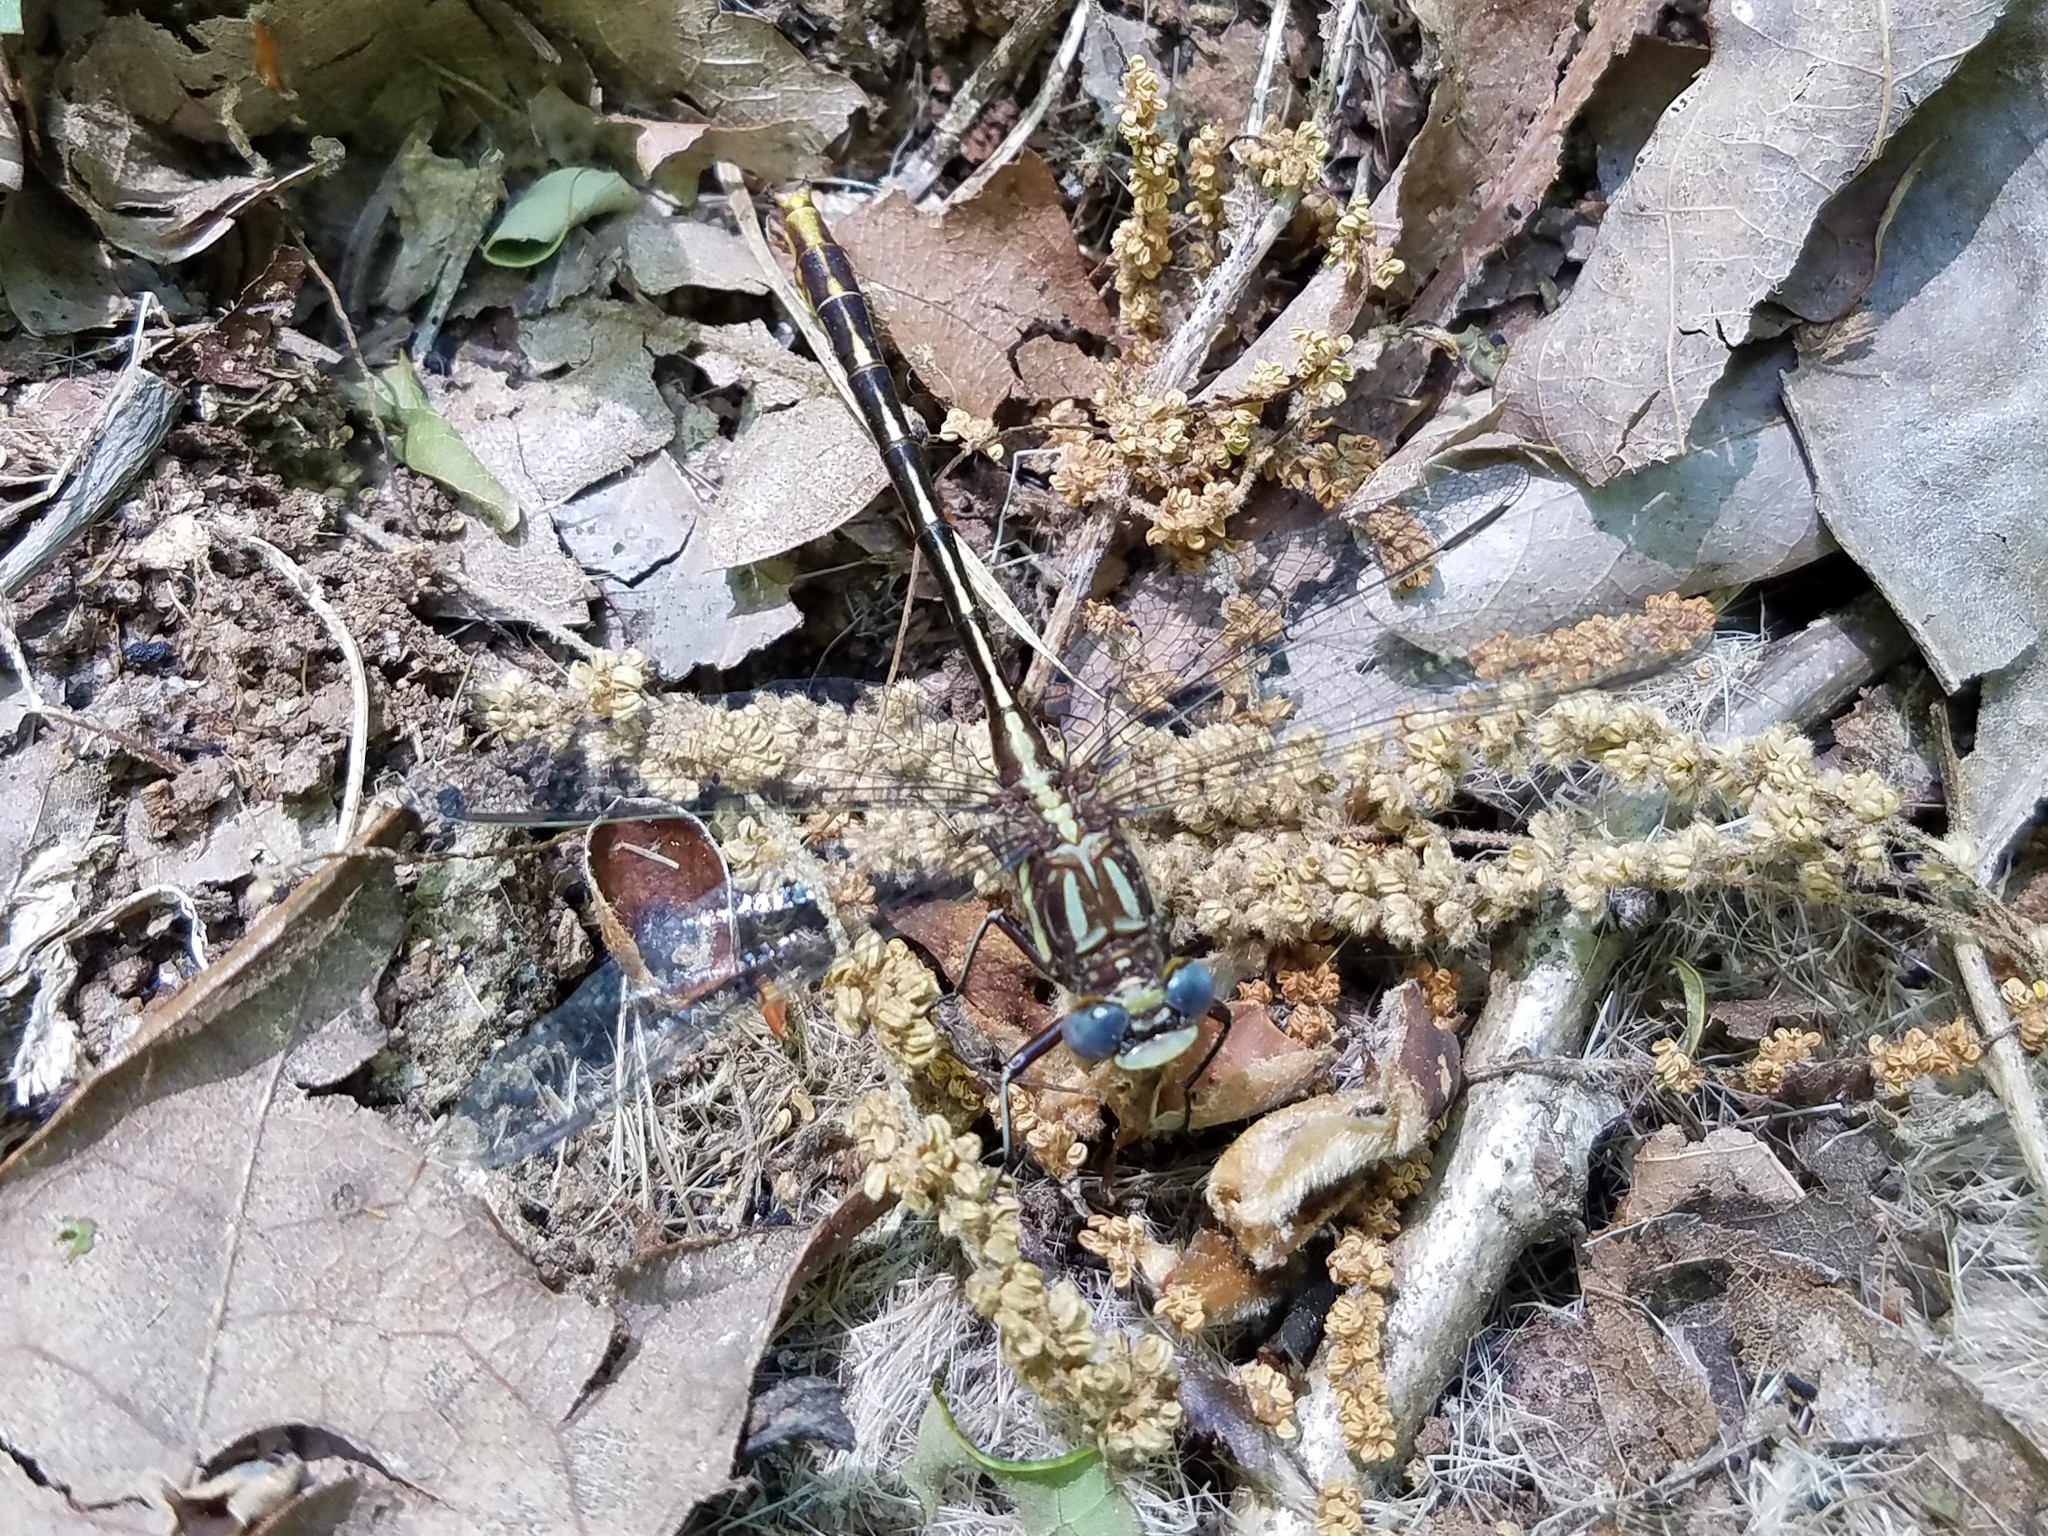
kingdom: Animalia
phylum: Arthropoda
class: Insecta
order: Odonata
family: Gomphidae
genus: Phanogomphus
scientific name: Phanogomphus exilis
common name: Lancet clubtail
